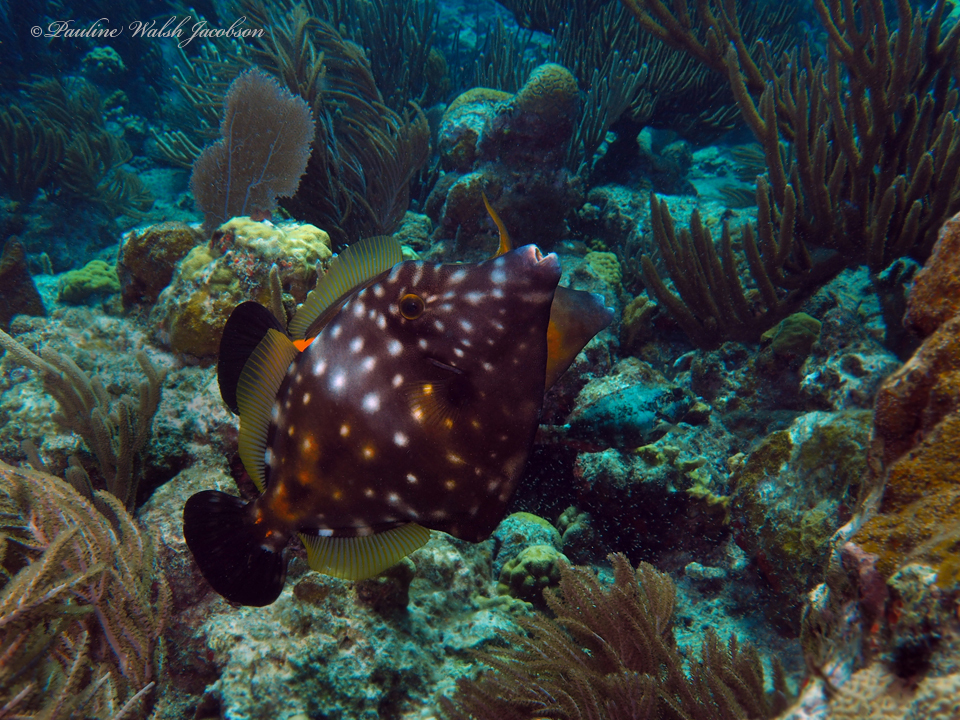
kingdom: Animalia
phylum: Chordata
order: Tetraodontiformes
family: Monacanthidae
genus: Cantherhines
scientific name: Cantherhines macrocerus
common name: Whitespotted filefish
